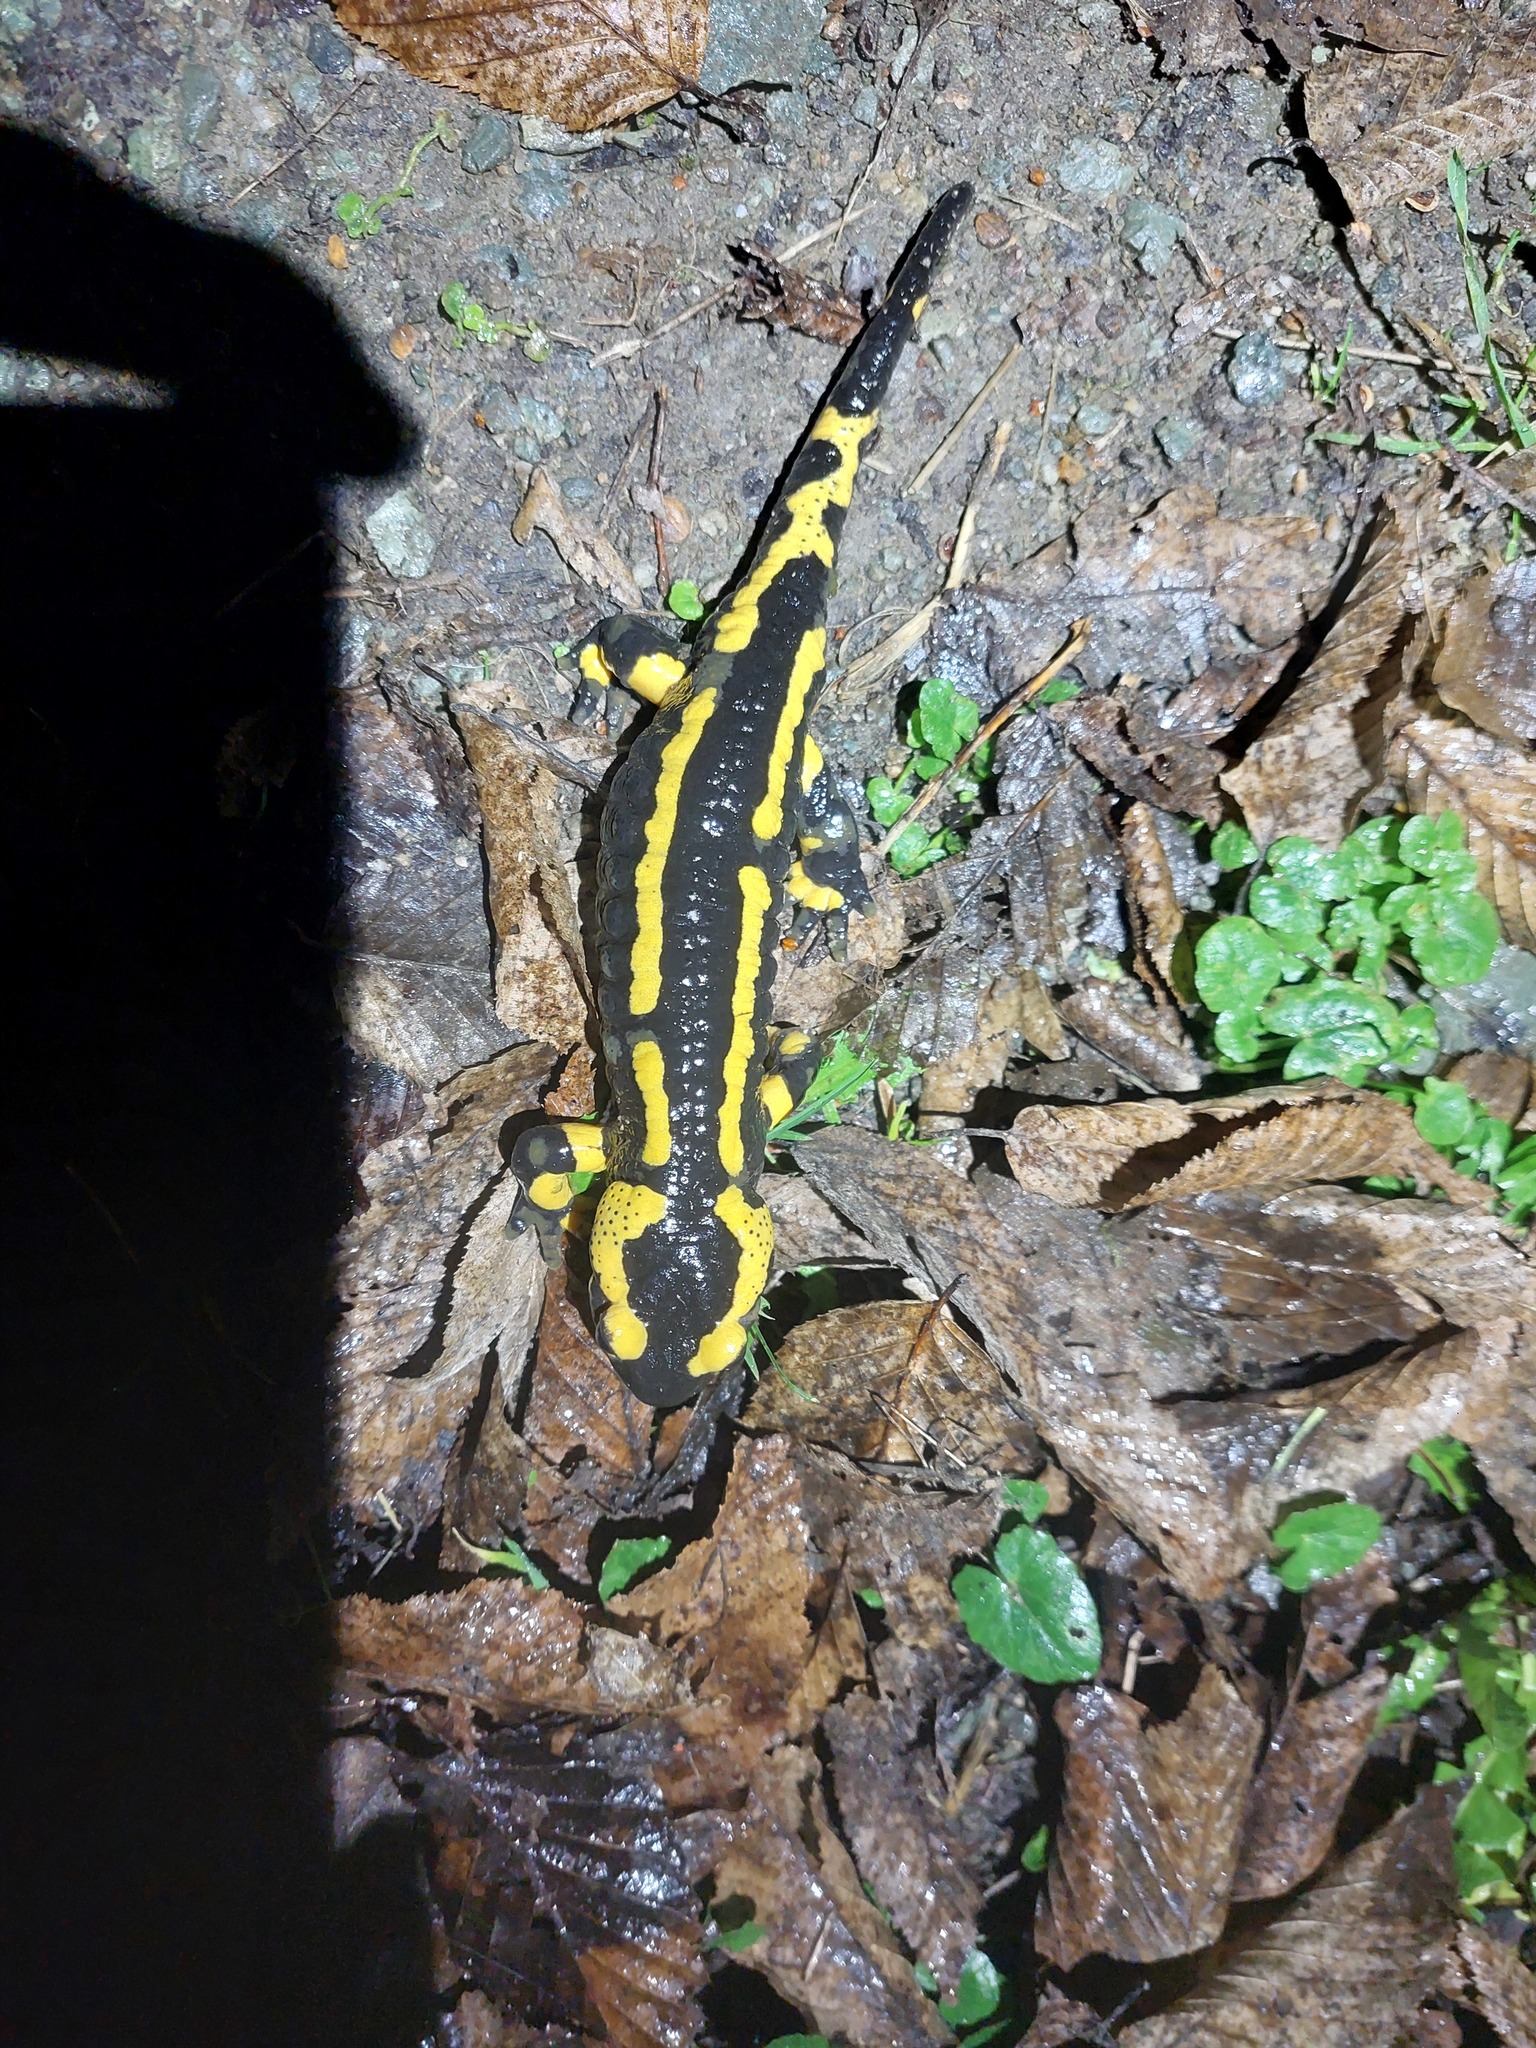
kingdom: Animalia
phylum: Chordata
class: Amphibia
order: Caudata
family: Salamandridae
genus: Salamandra
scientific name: Salamandra salamandra
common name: Fire salamander
